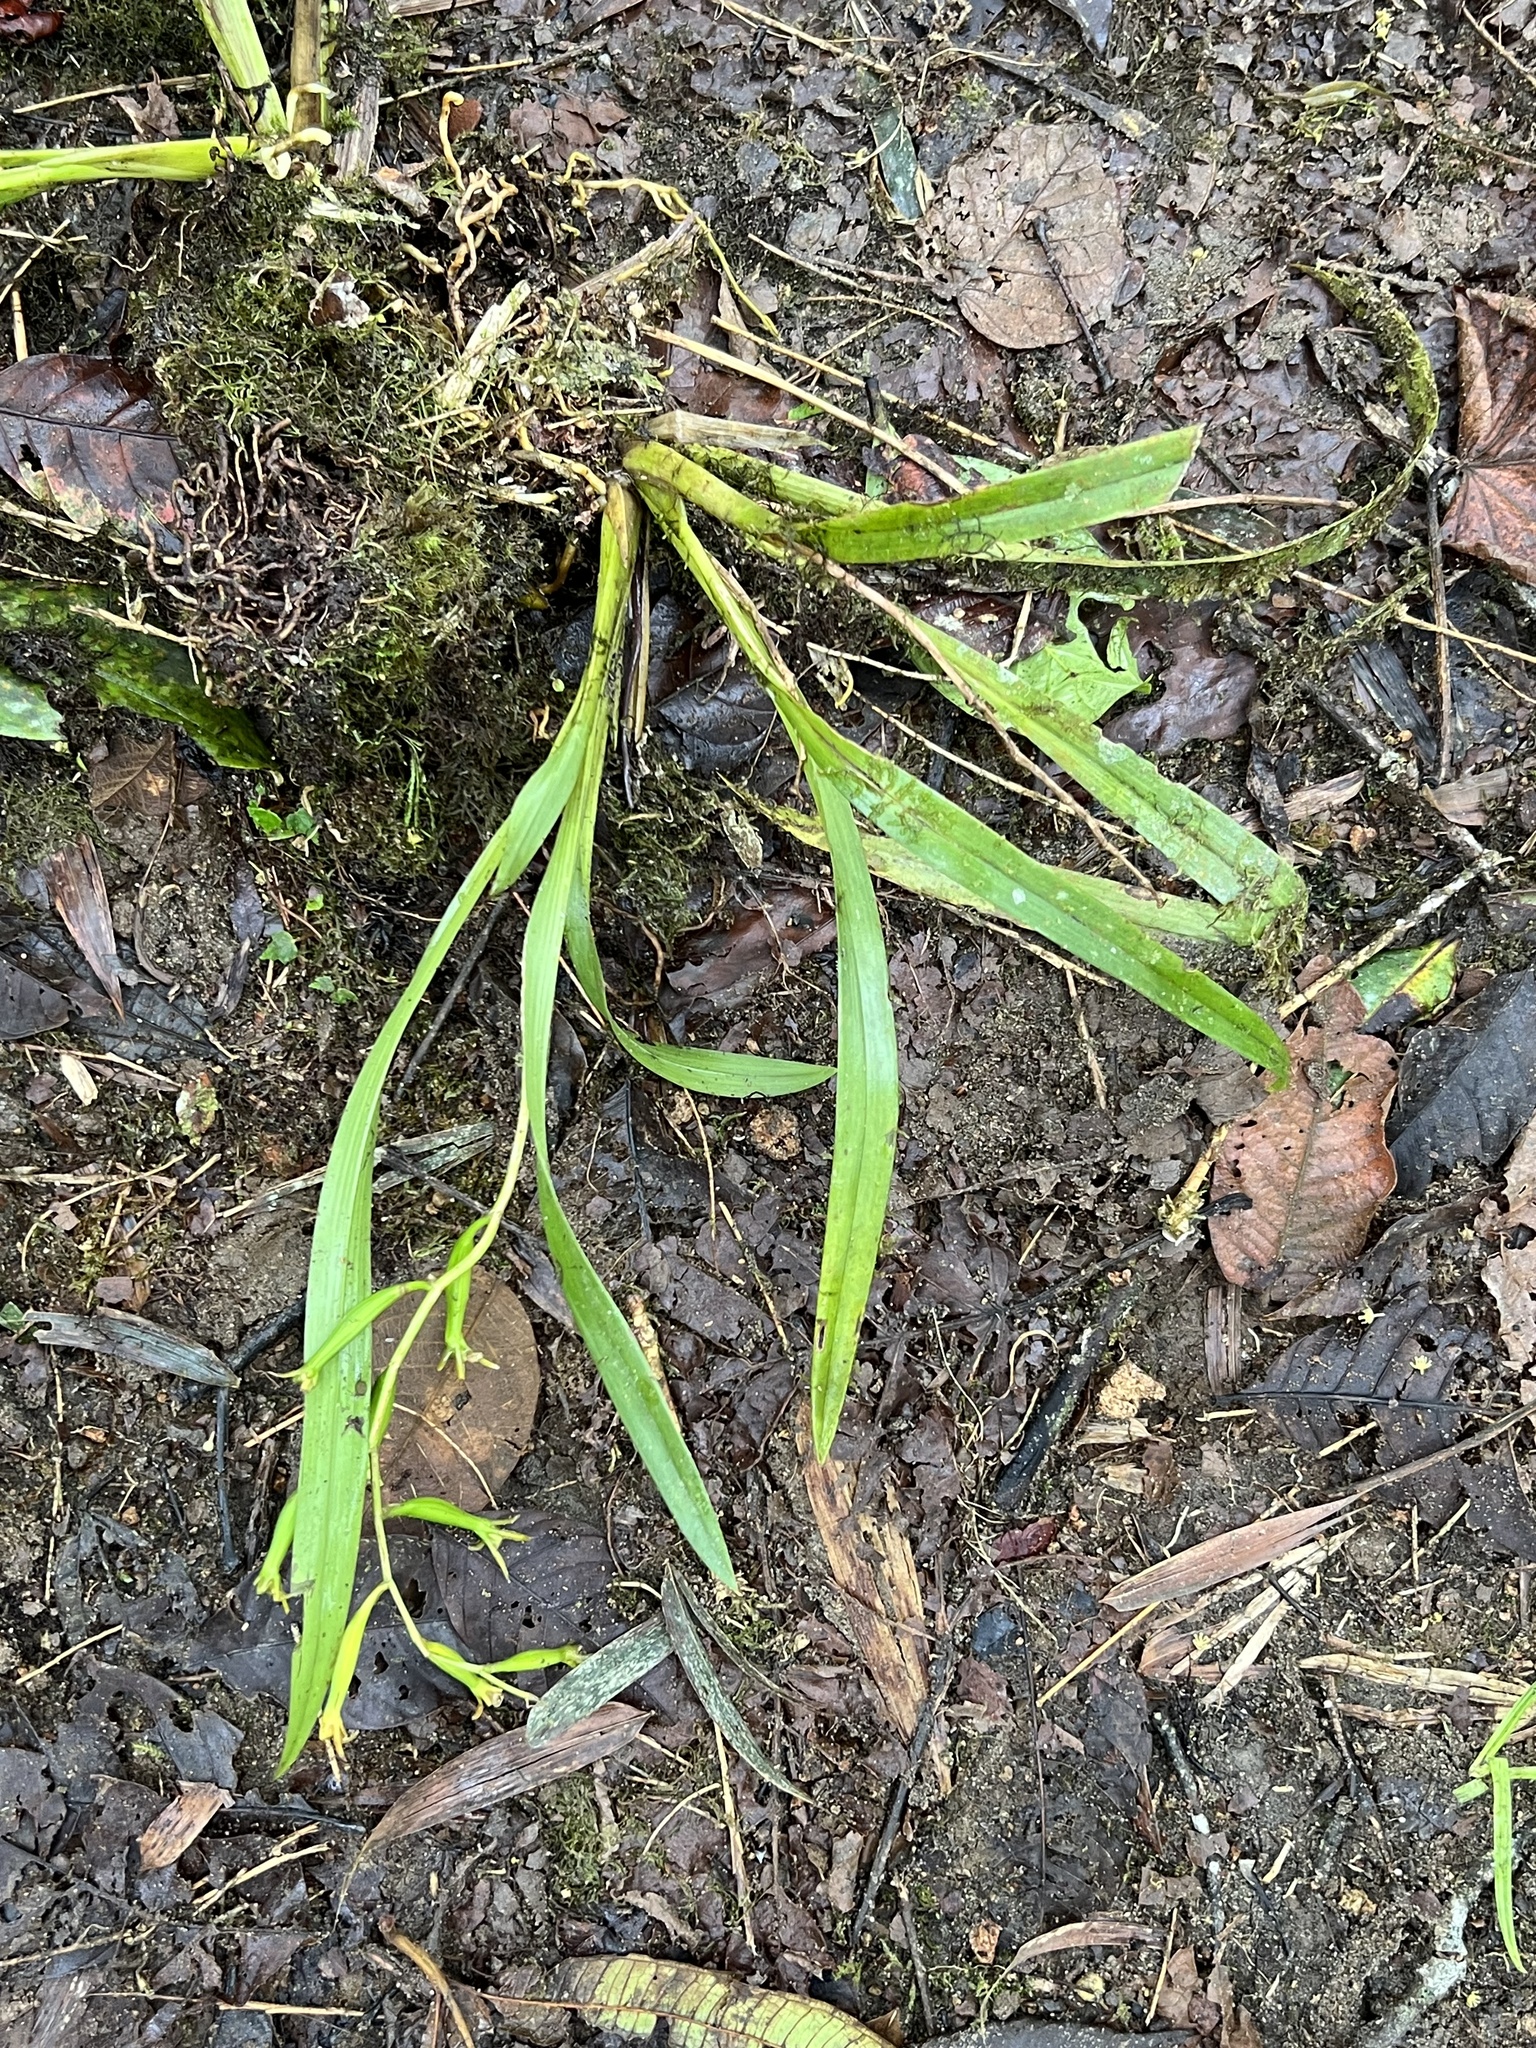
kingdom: Plantae
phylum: Tracheophyta
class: Liliopsida
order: Asparagales
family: Orchidaceae
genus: Brassia
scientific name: Brassia euodes
